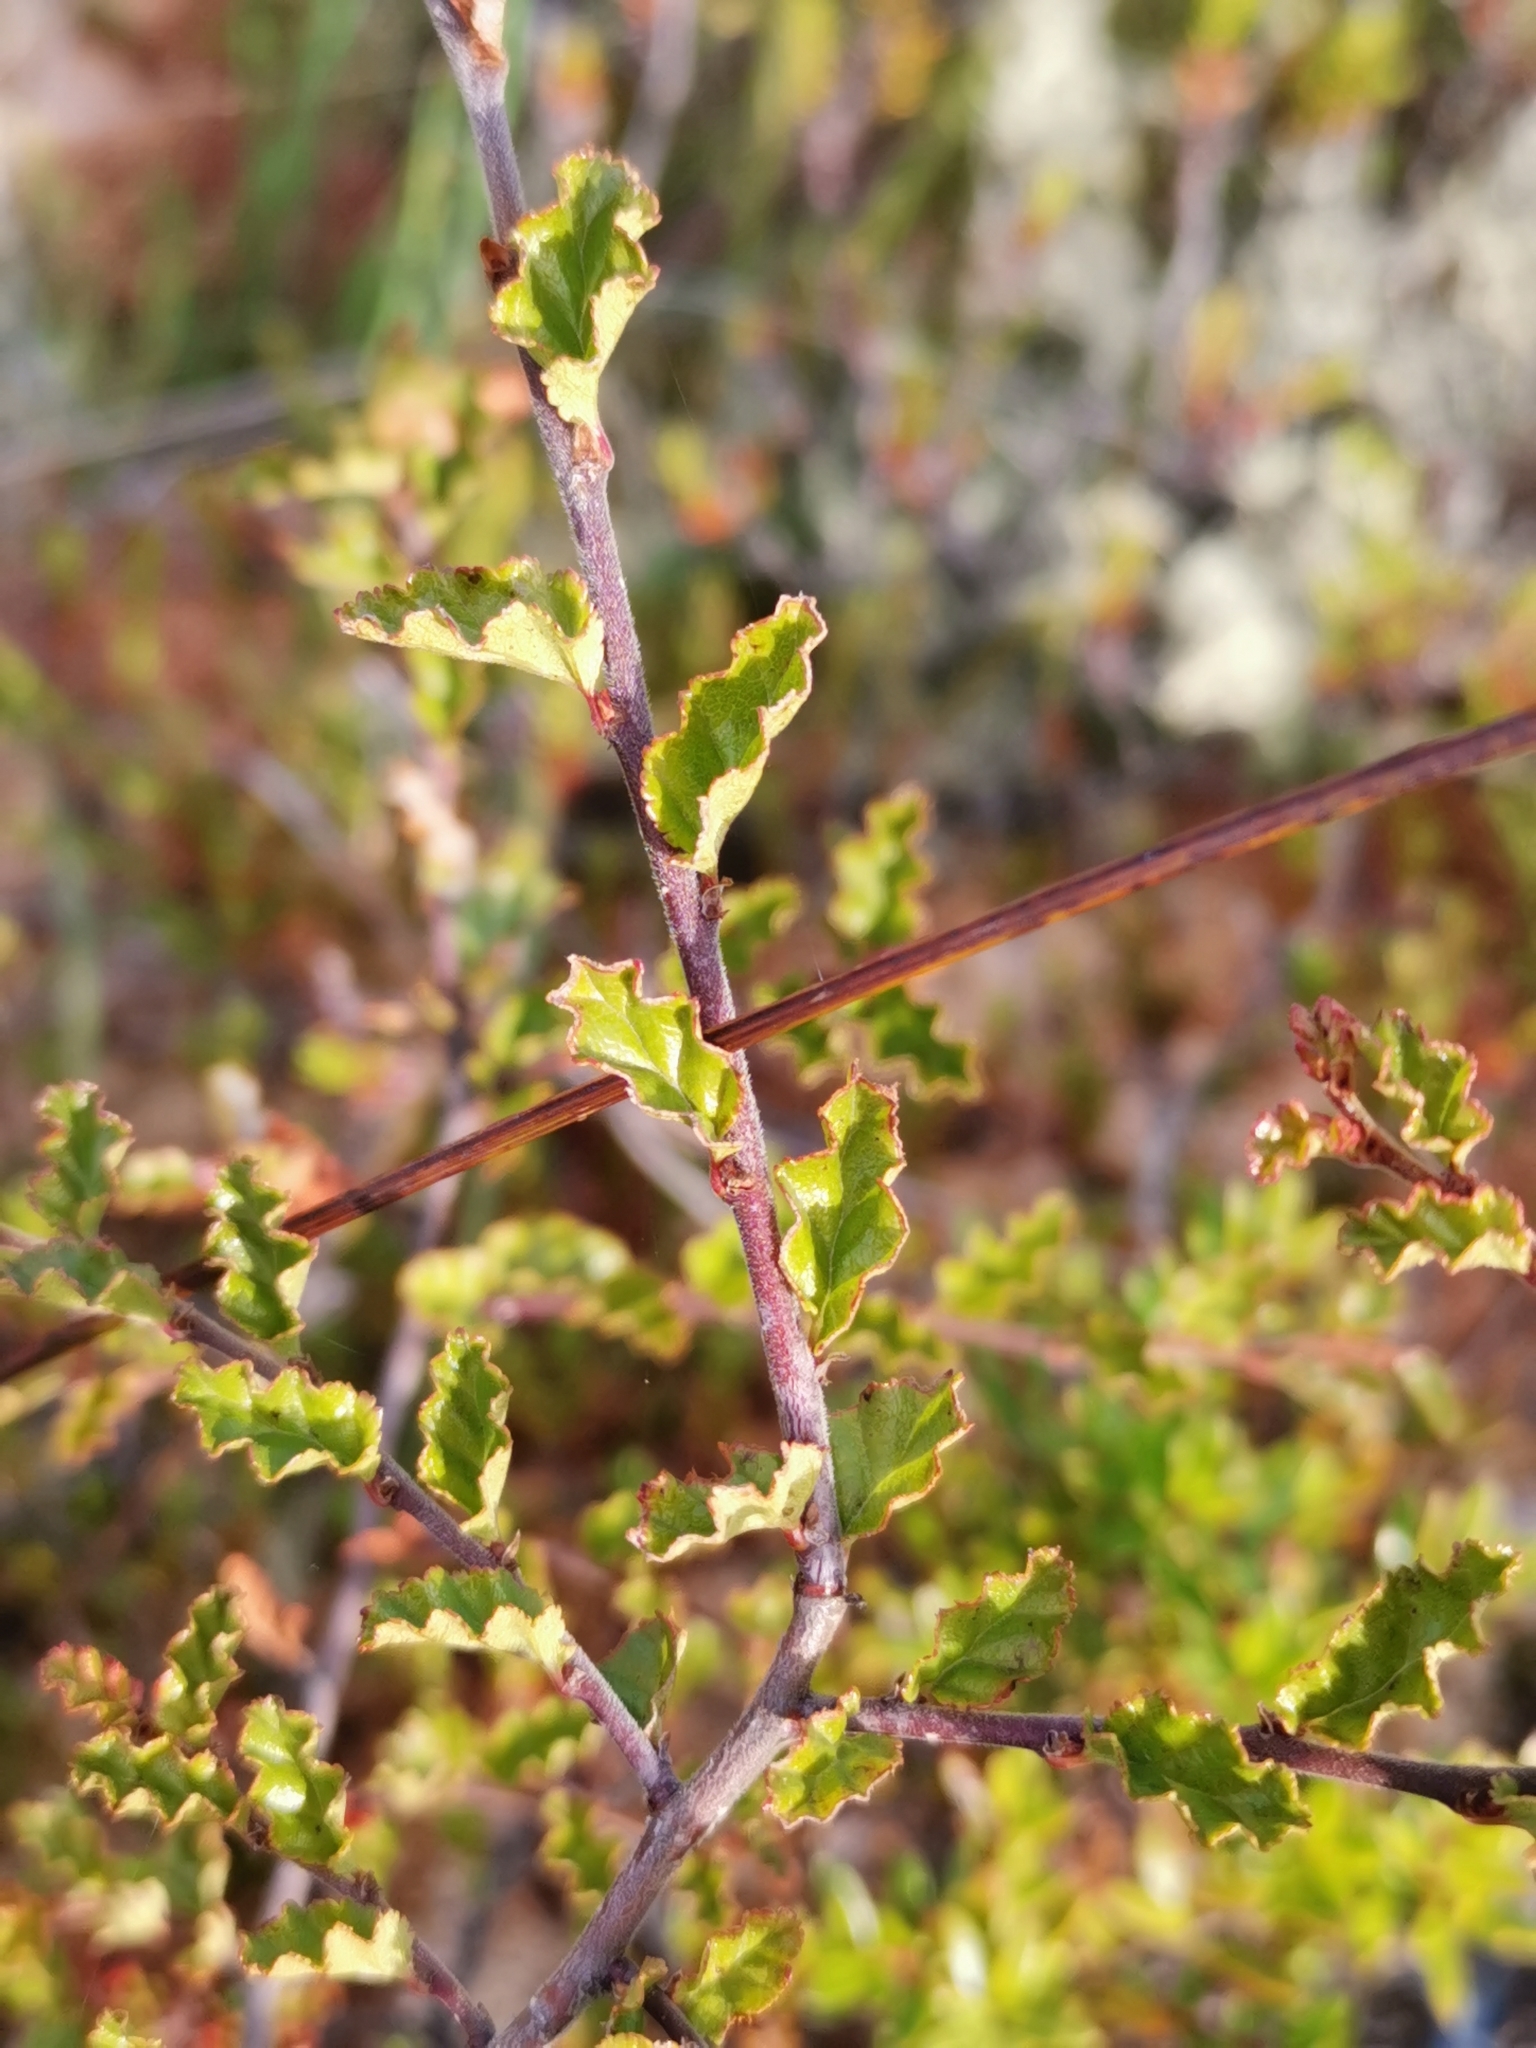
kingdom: Plantae
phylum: Tracheophyta
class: Magnoliopsida
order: Fagales
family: Nothofagaceae
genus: Nothofagus
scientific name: Nothofagus antarctica
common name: Antarctic beech
